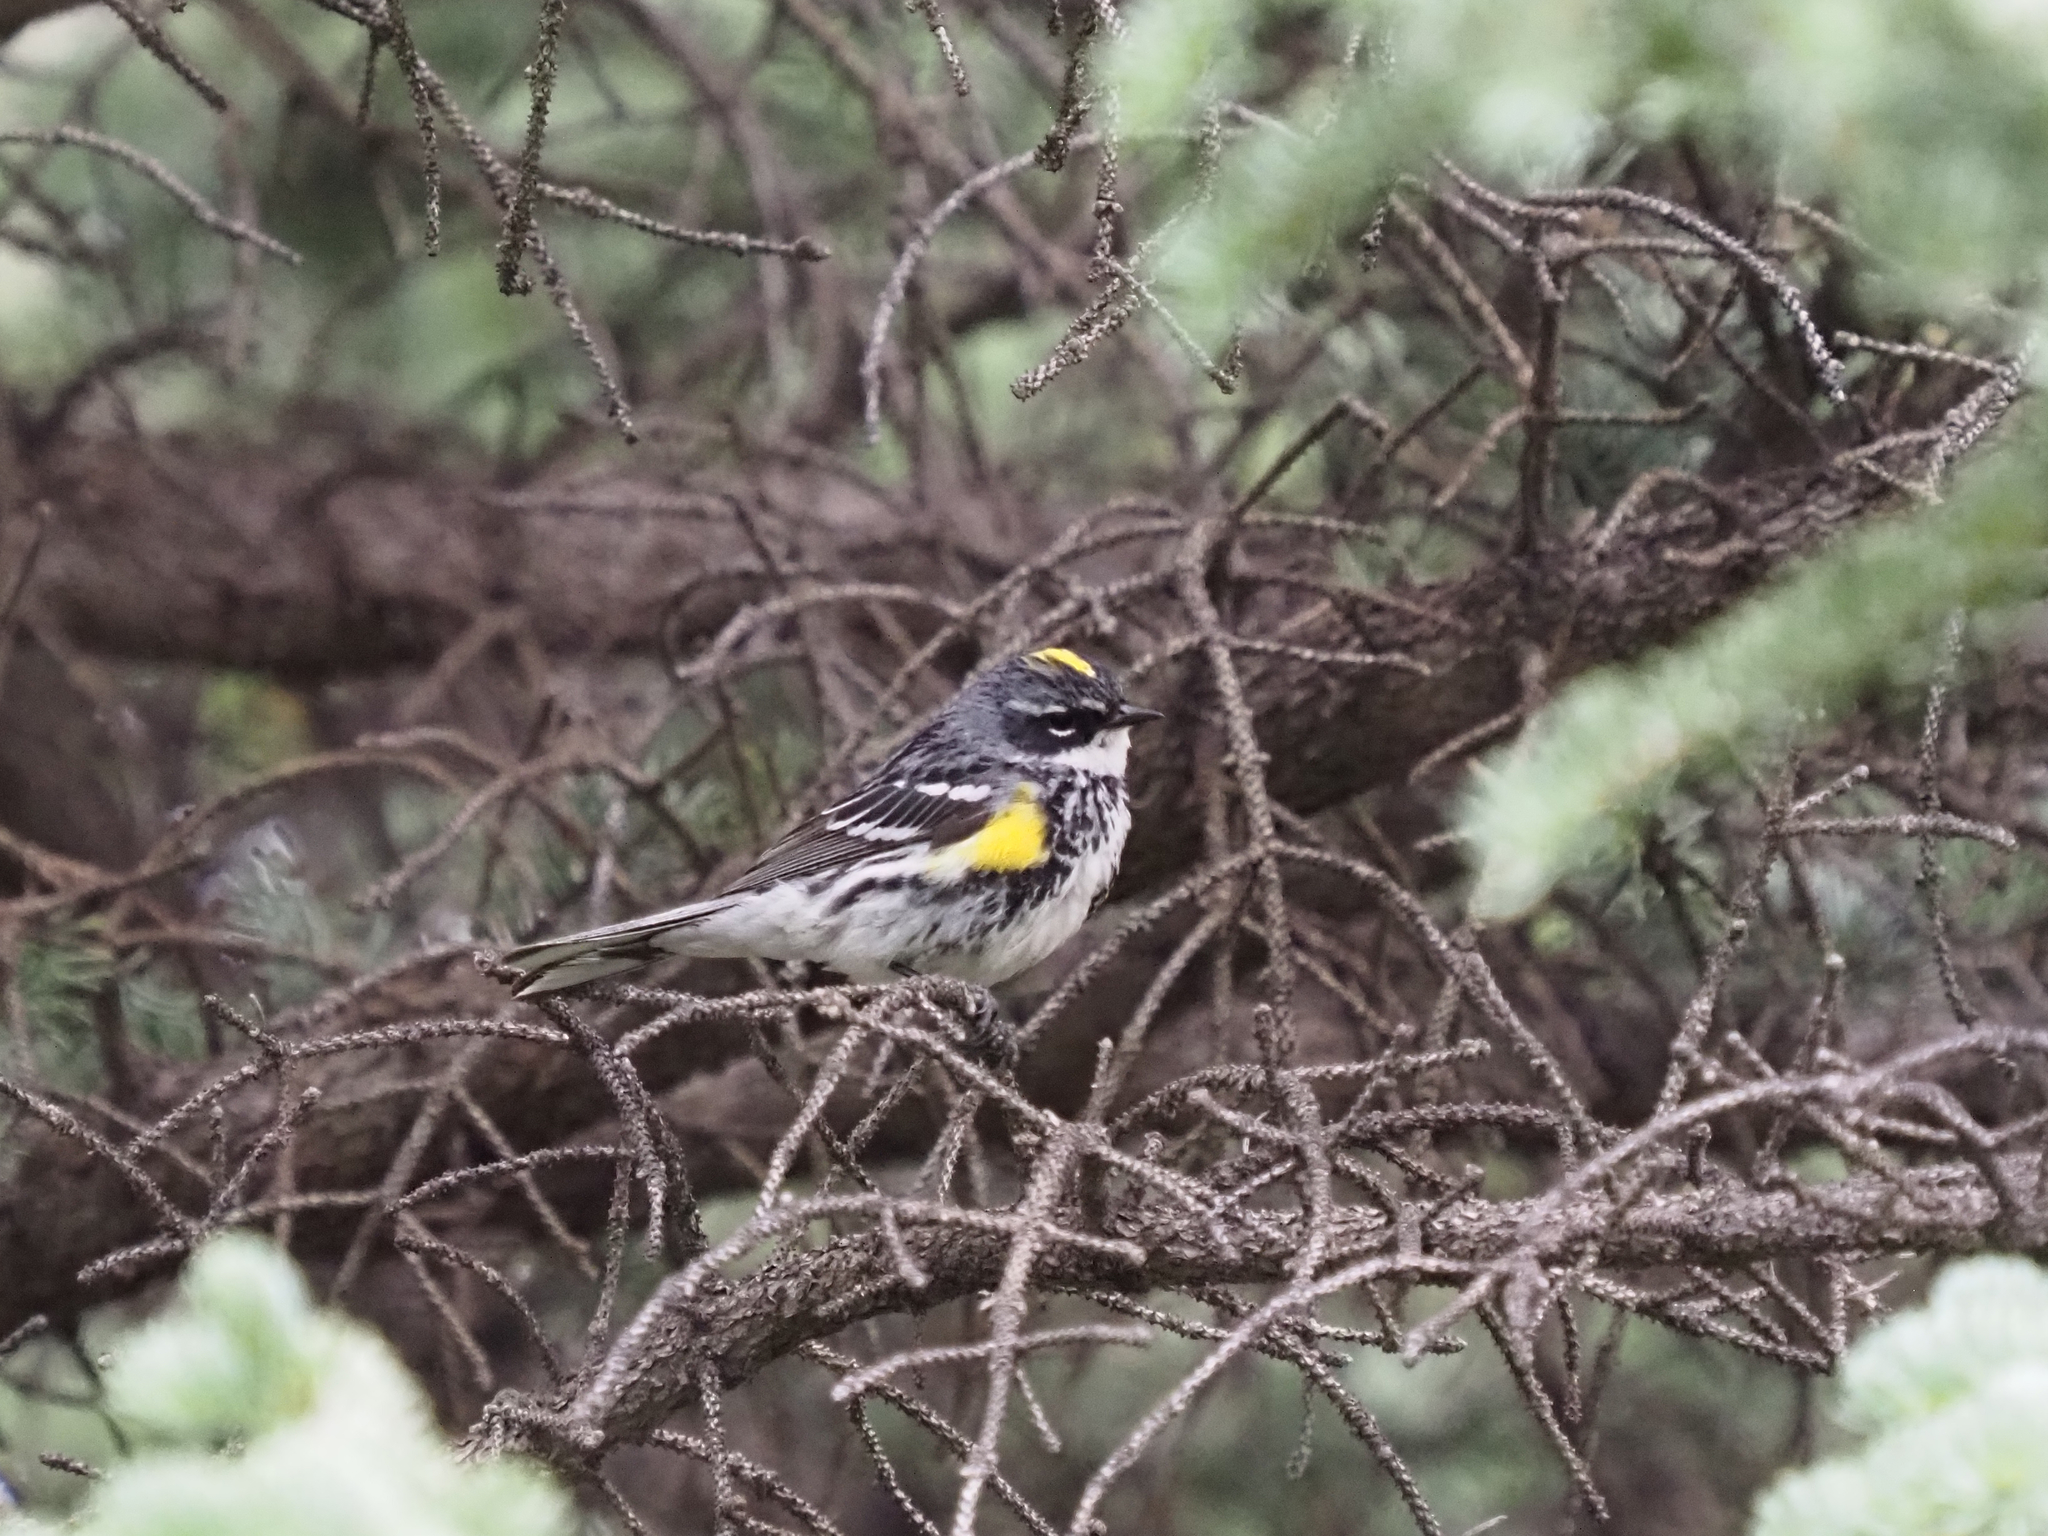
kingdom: Animalia
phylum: Chordata
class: Aves
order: Passeriformes
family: Parulidae
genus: Setophaga
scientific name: Setophaga coronata
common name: Myrtle warbler
